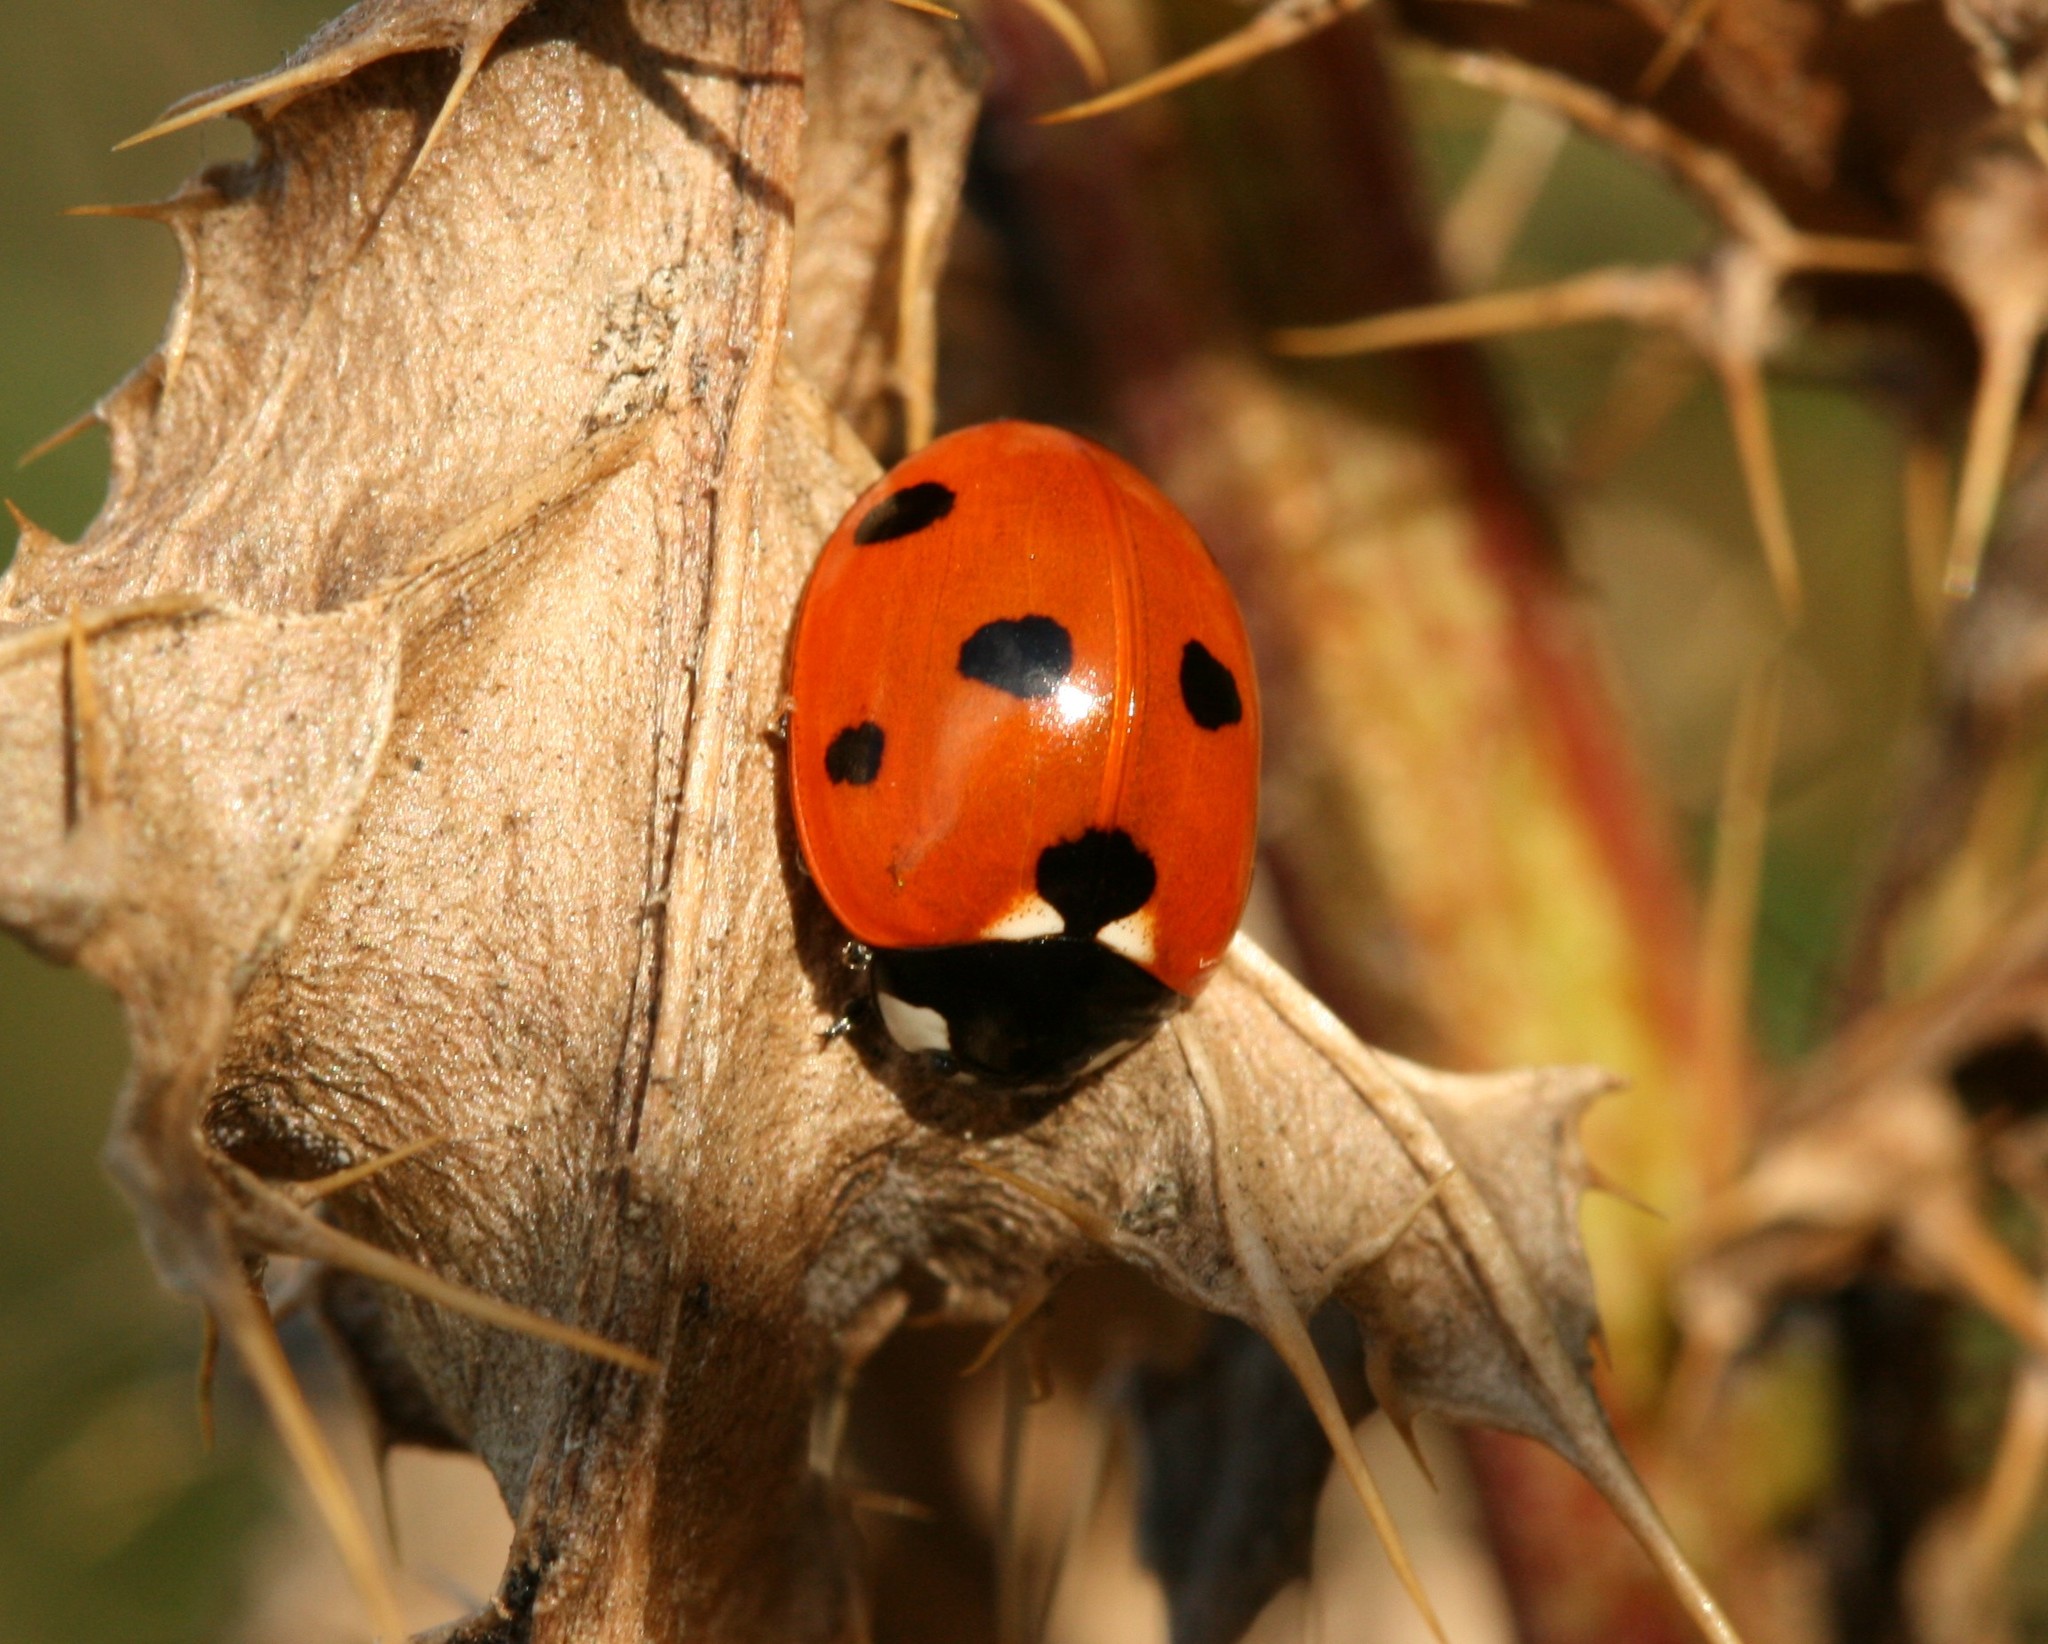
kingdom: Animalia
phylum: Arthropoda
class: Insecta
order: Coleoptera
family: Coccinellidae
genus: Coccinella
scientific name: Coccinella septempunctata
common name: Sevenspotted lady beetle
